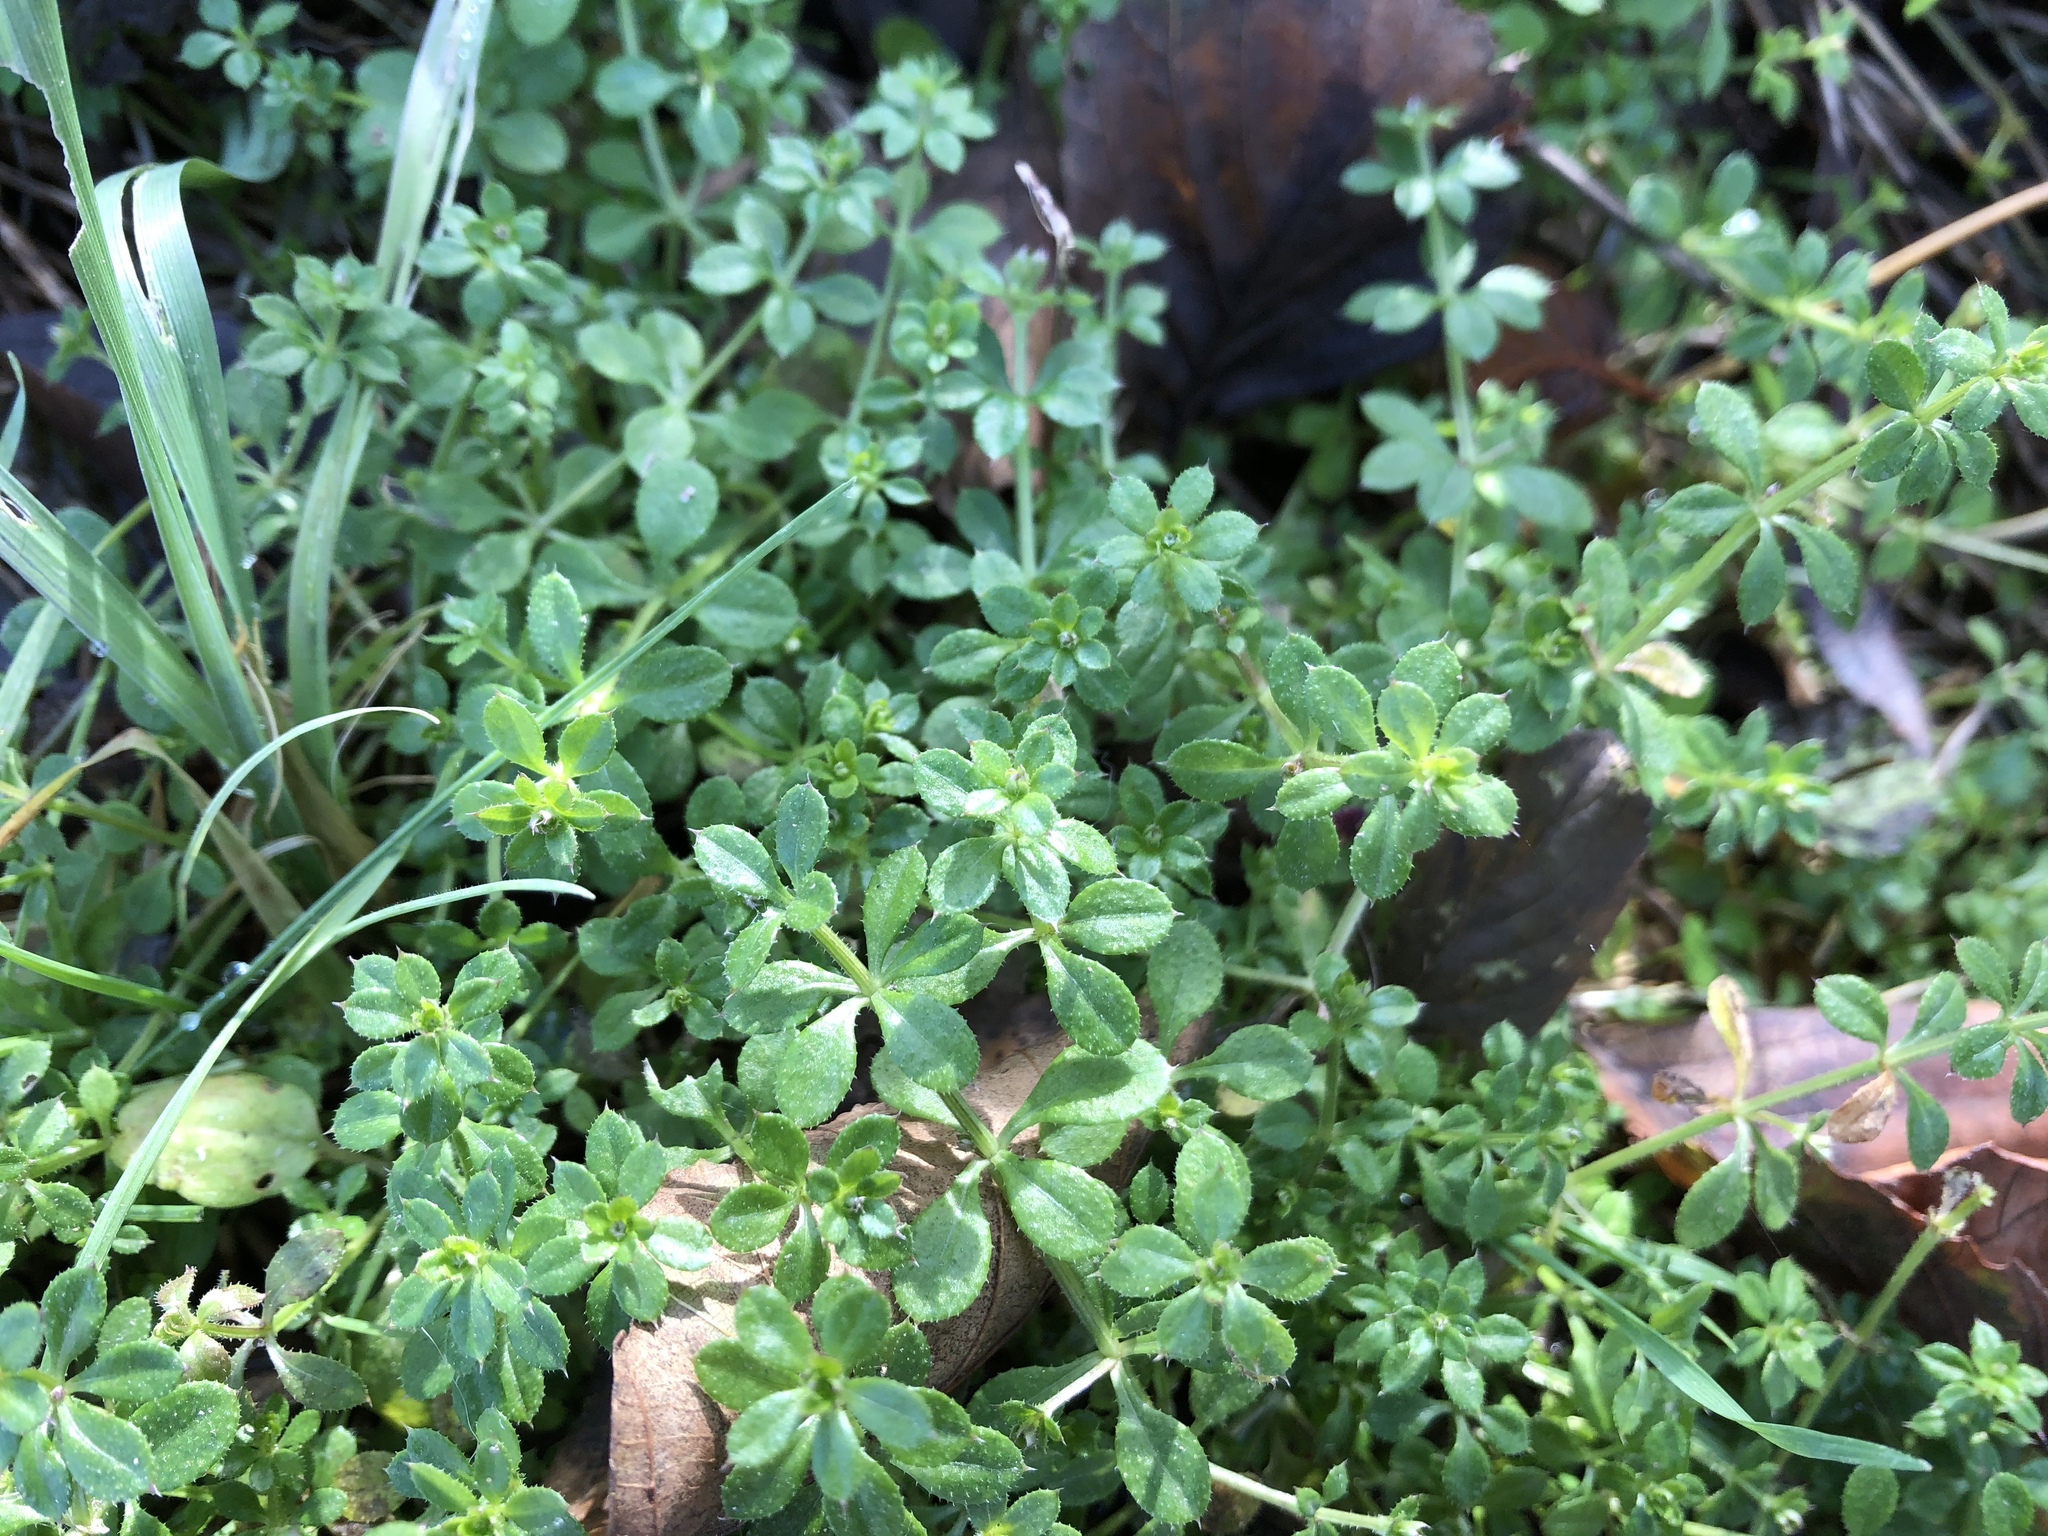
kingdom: Plantae
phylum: Tracheophyta
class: Magnoliopsida
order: Gentianales
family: Rubiaceae
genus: Galium
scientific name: Galium aparine
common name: Cleavers
